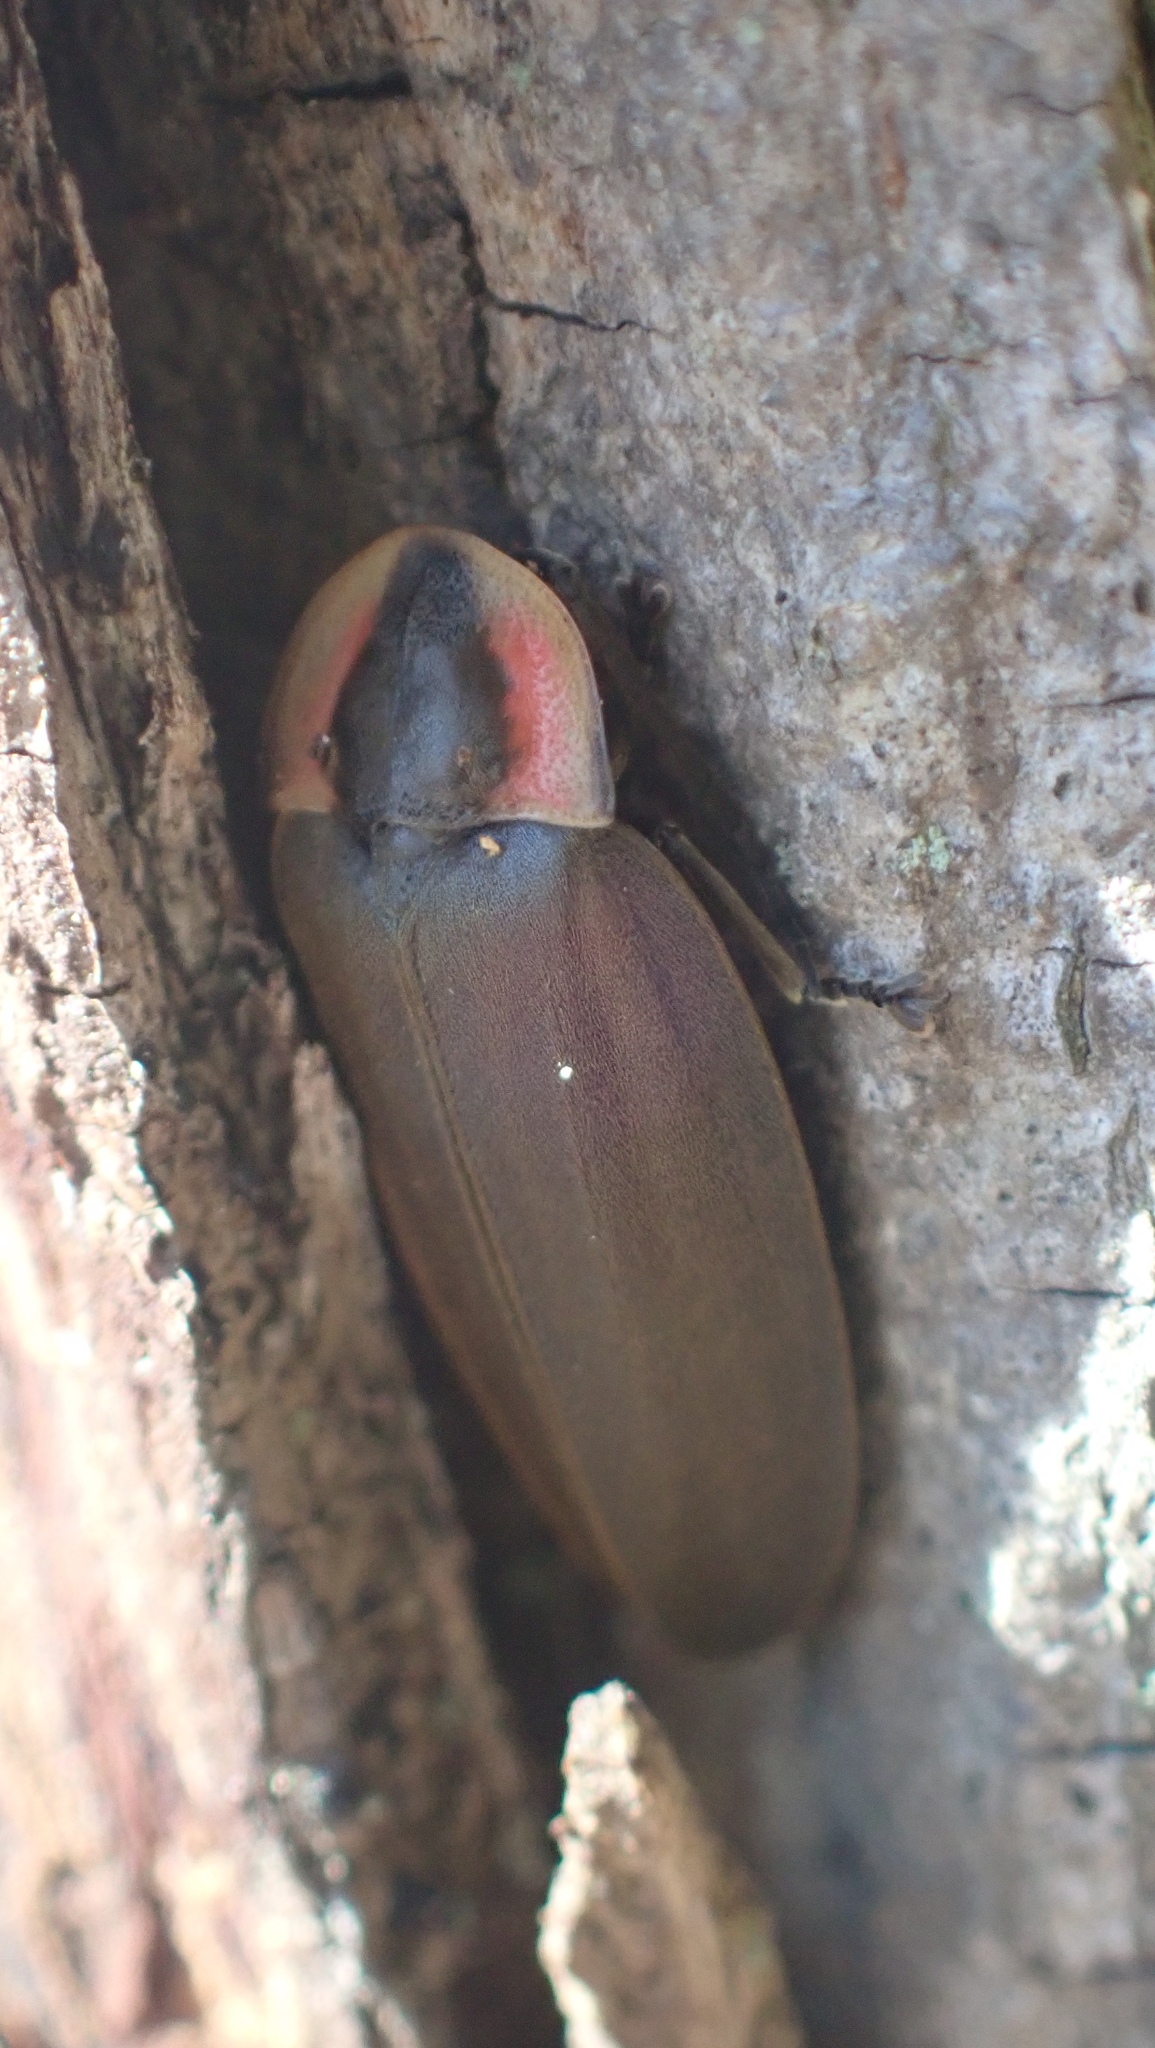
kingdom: Animalia
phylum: Arthropoda
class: Insecta
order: Coleoptera
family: Lampyridae
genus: Photinus
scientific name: Photinus corrusca
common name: Winter firefly
